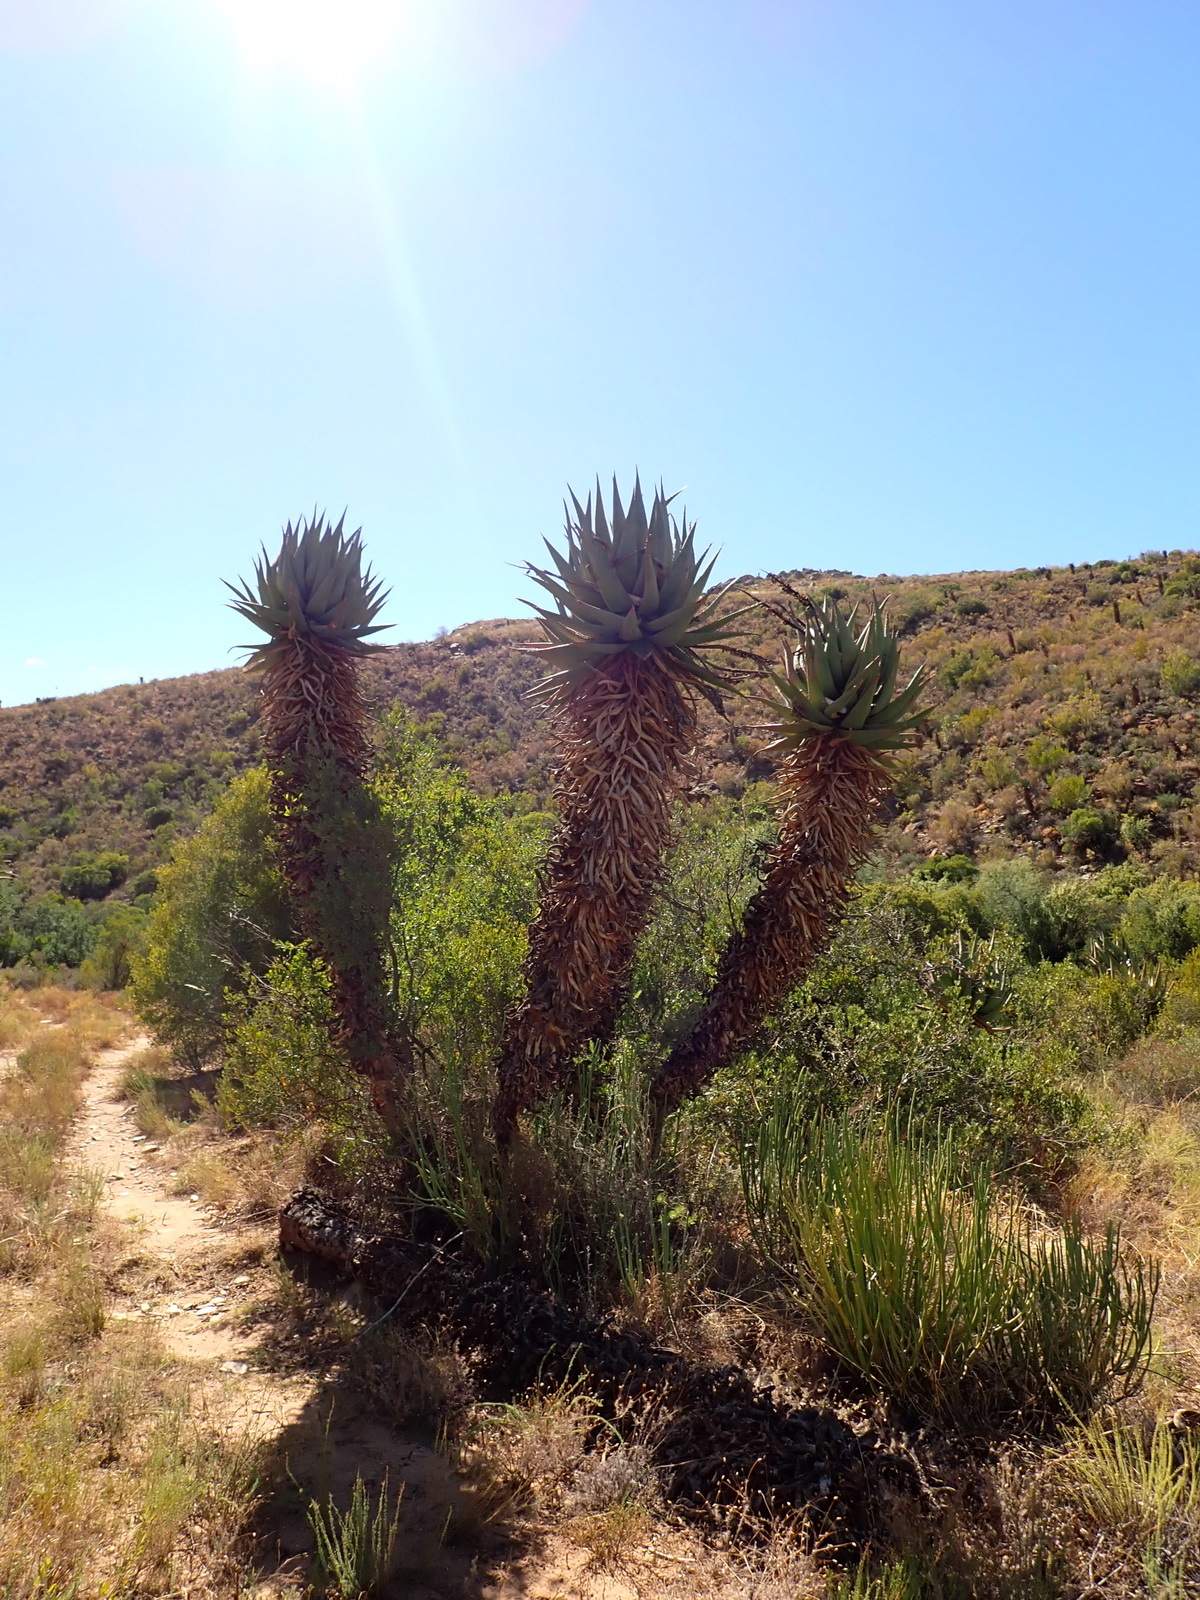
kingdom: Plantae
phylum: Tracheophyta
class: Liliopsida
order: Asparagales
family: Asphodelaceae
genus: Aloe
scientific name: Aloe ferox
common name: Bitter aloe
